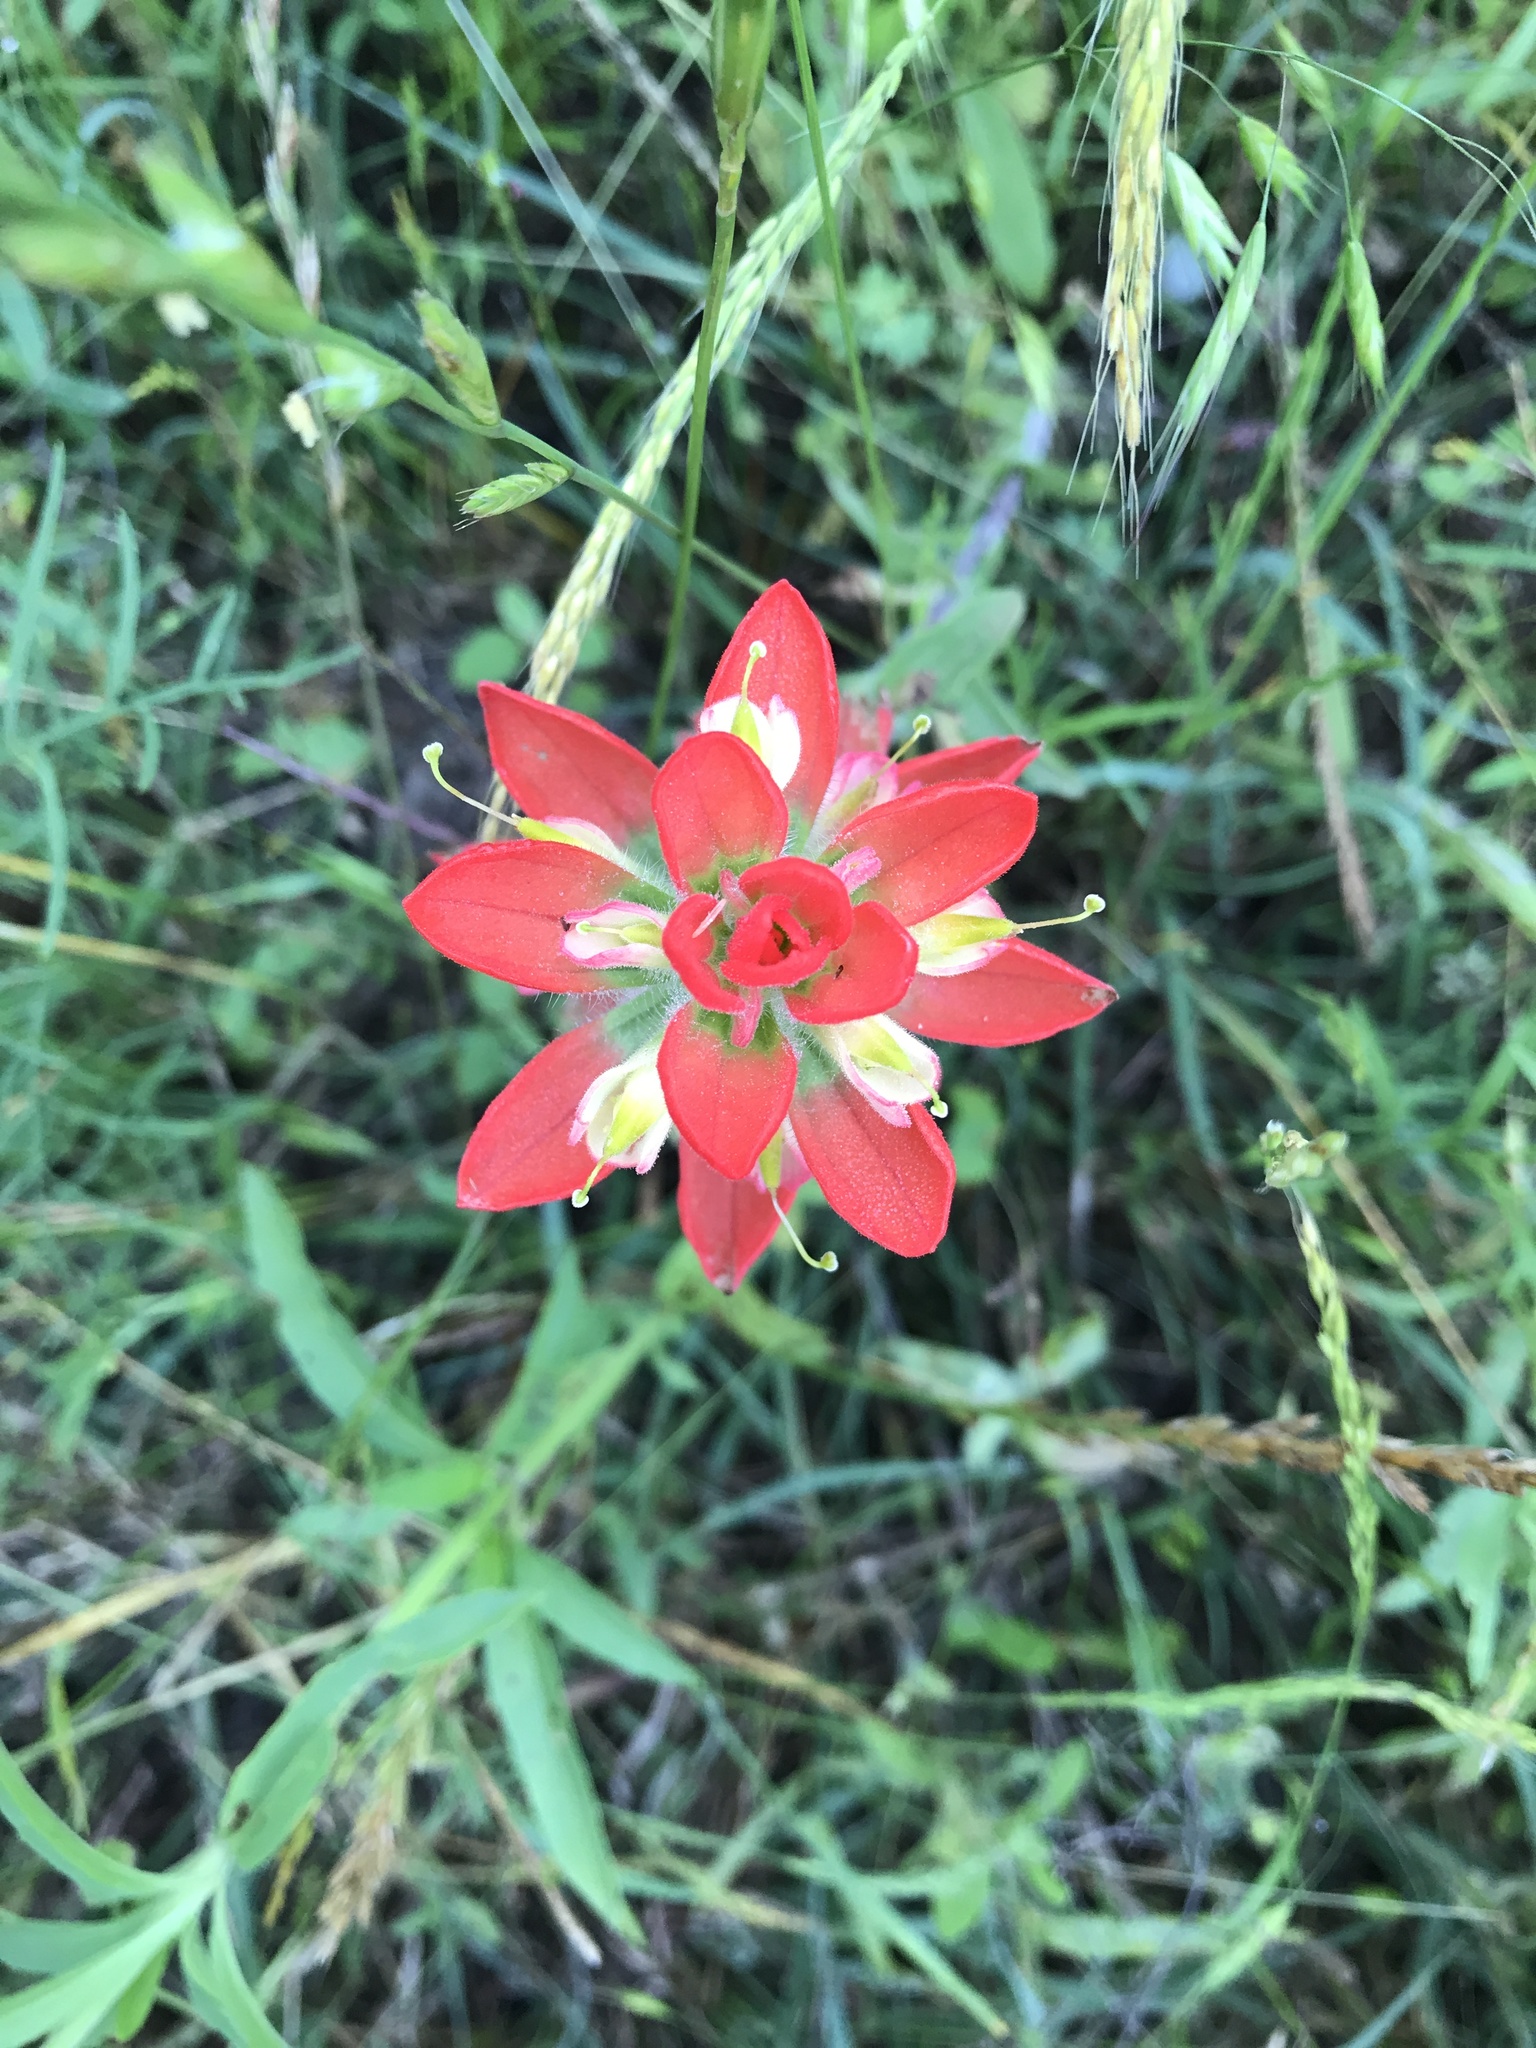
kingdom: Plantae
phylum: Tracheophyta
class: Magnoliopsida
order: Lamiales
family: Orobanchaceae
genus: Castilleja
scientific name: Castilleja indivisa
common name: Texas paintbrush
